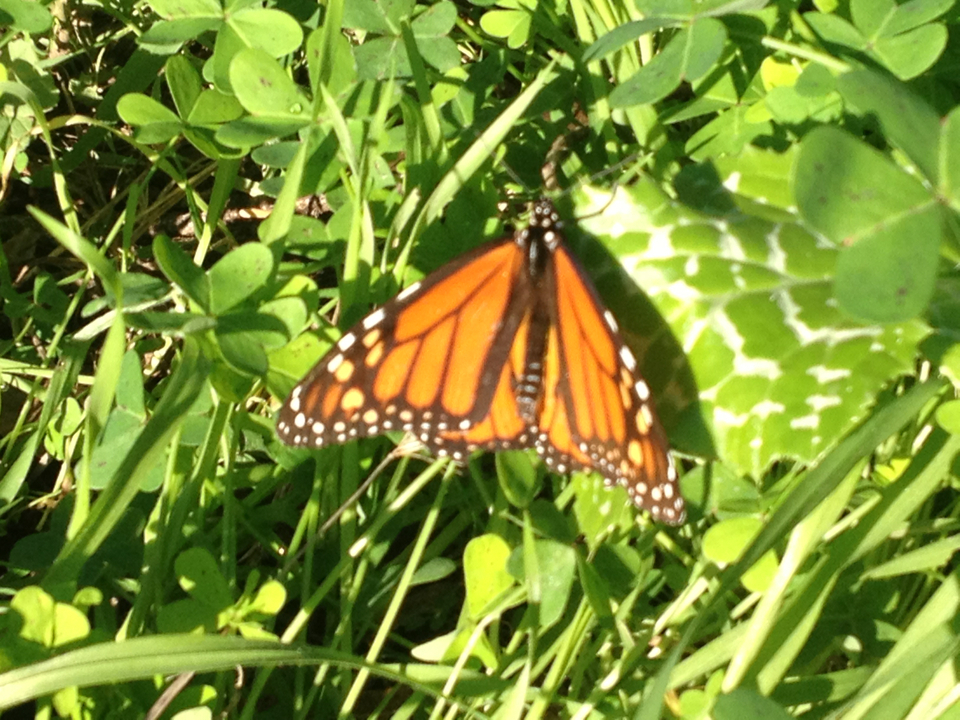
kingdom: Animalia
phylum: Arthropoda
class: Insecta
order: Lepidoptera
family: Nymphalidae
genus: Danaus
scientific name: Danaus plexippus
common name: Monarch
